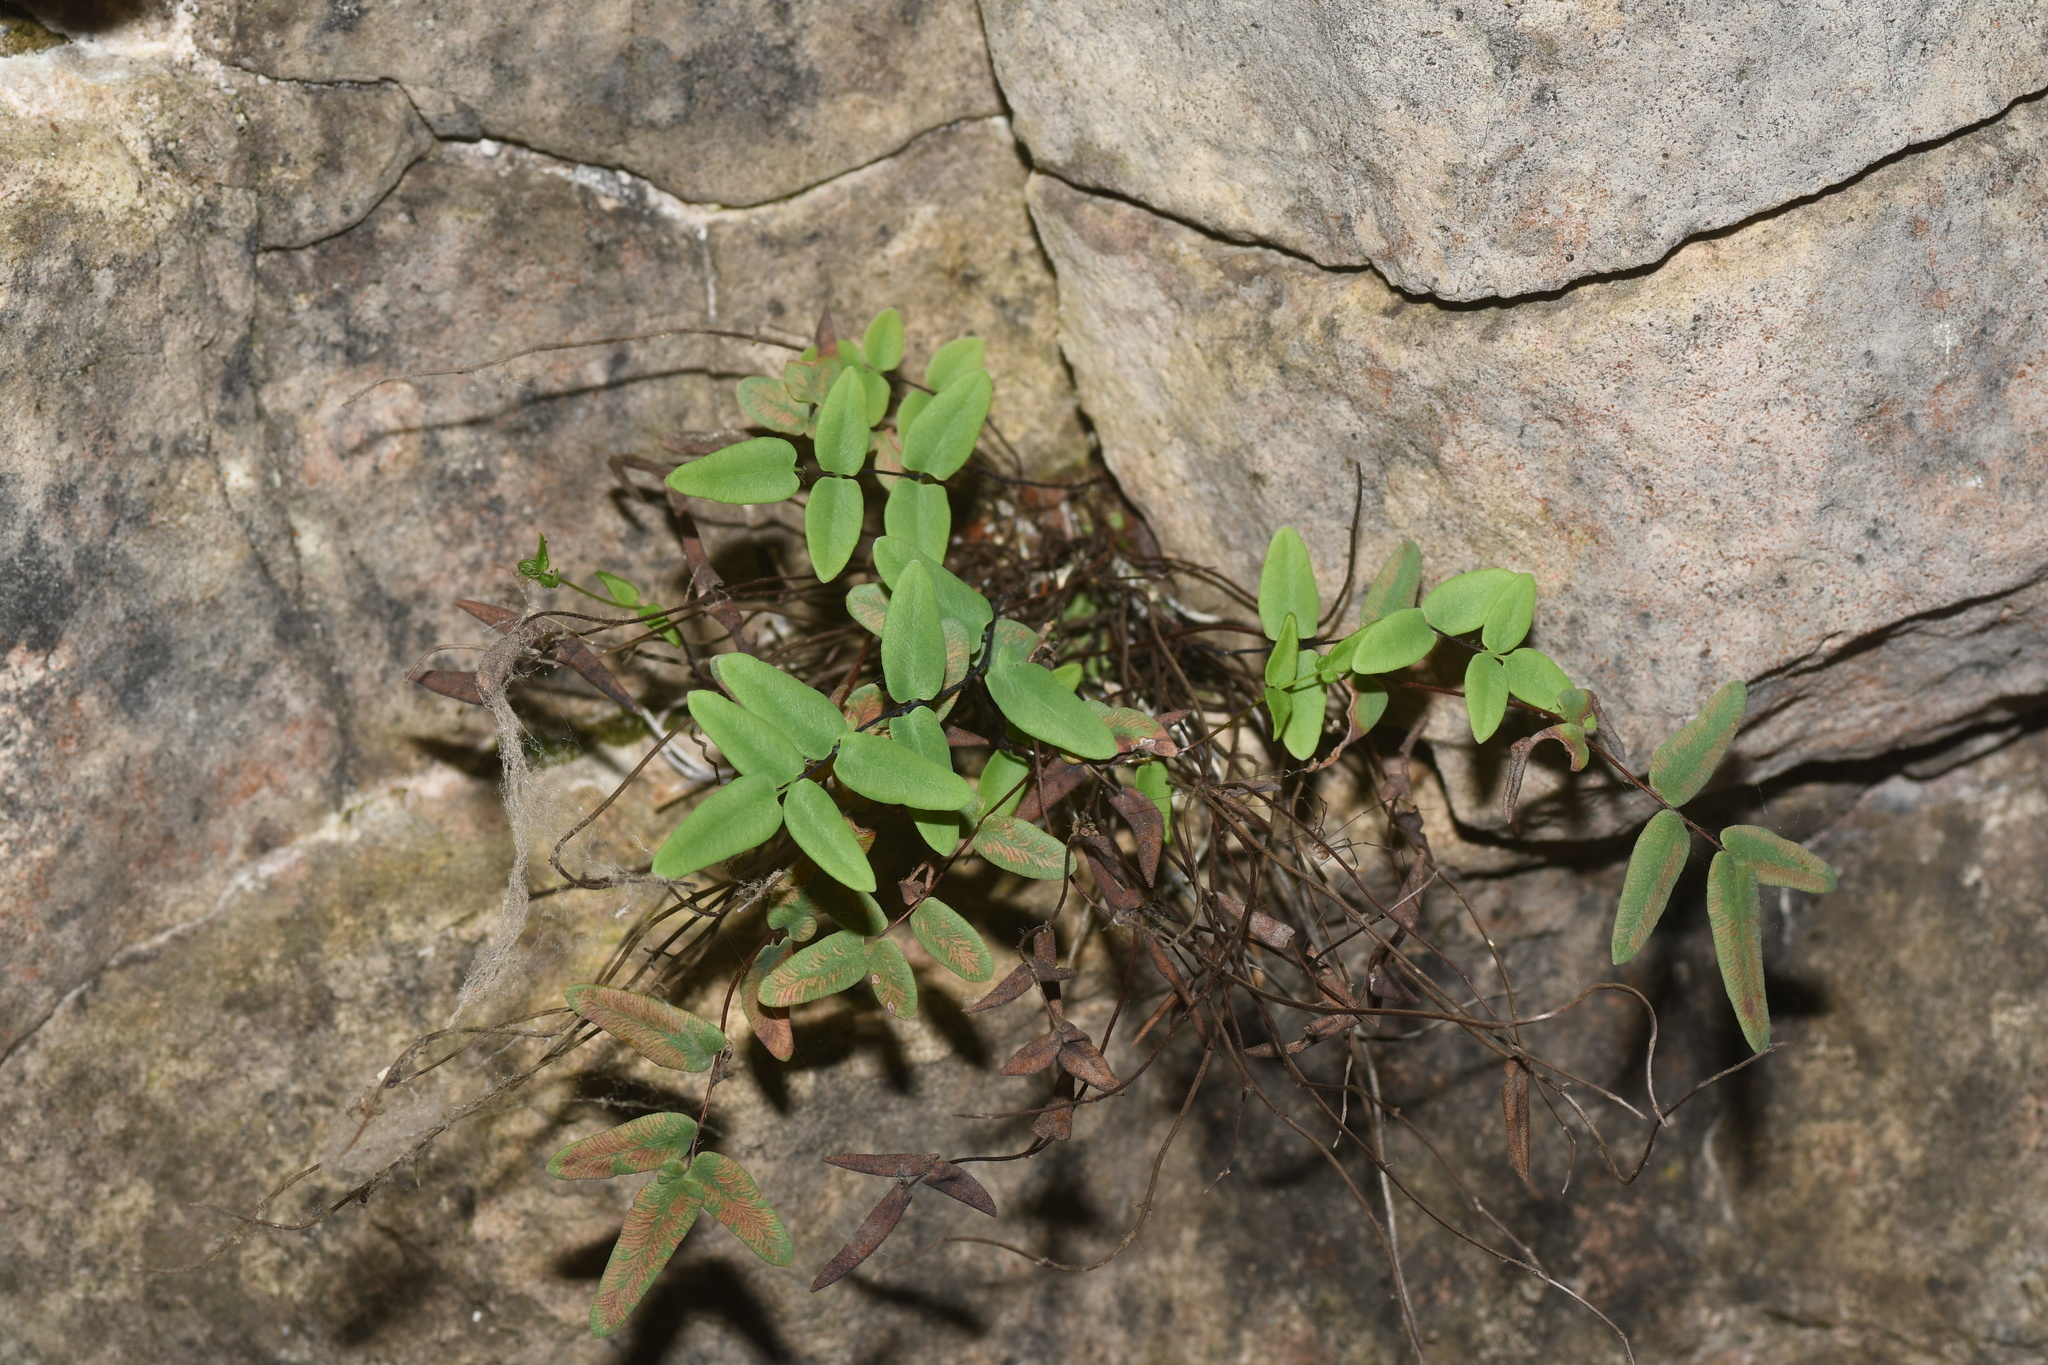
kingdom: Plantae
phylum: Tracheophyta
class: Polypodiopsida
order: Polypodiales
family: Pteridaceae
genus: Pellaea
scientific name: Pellaea glabella
